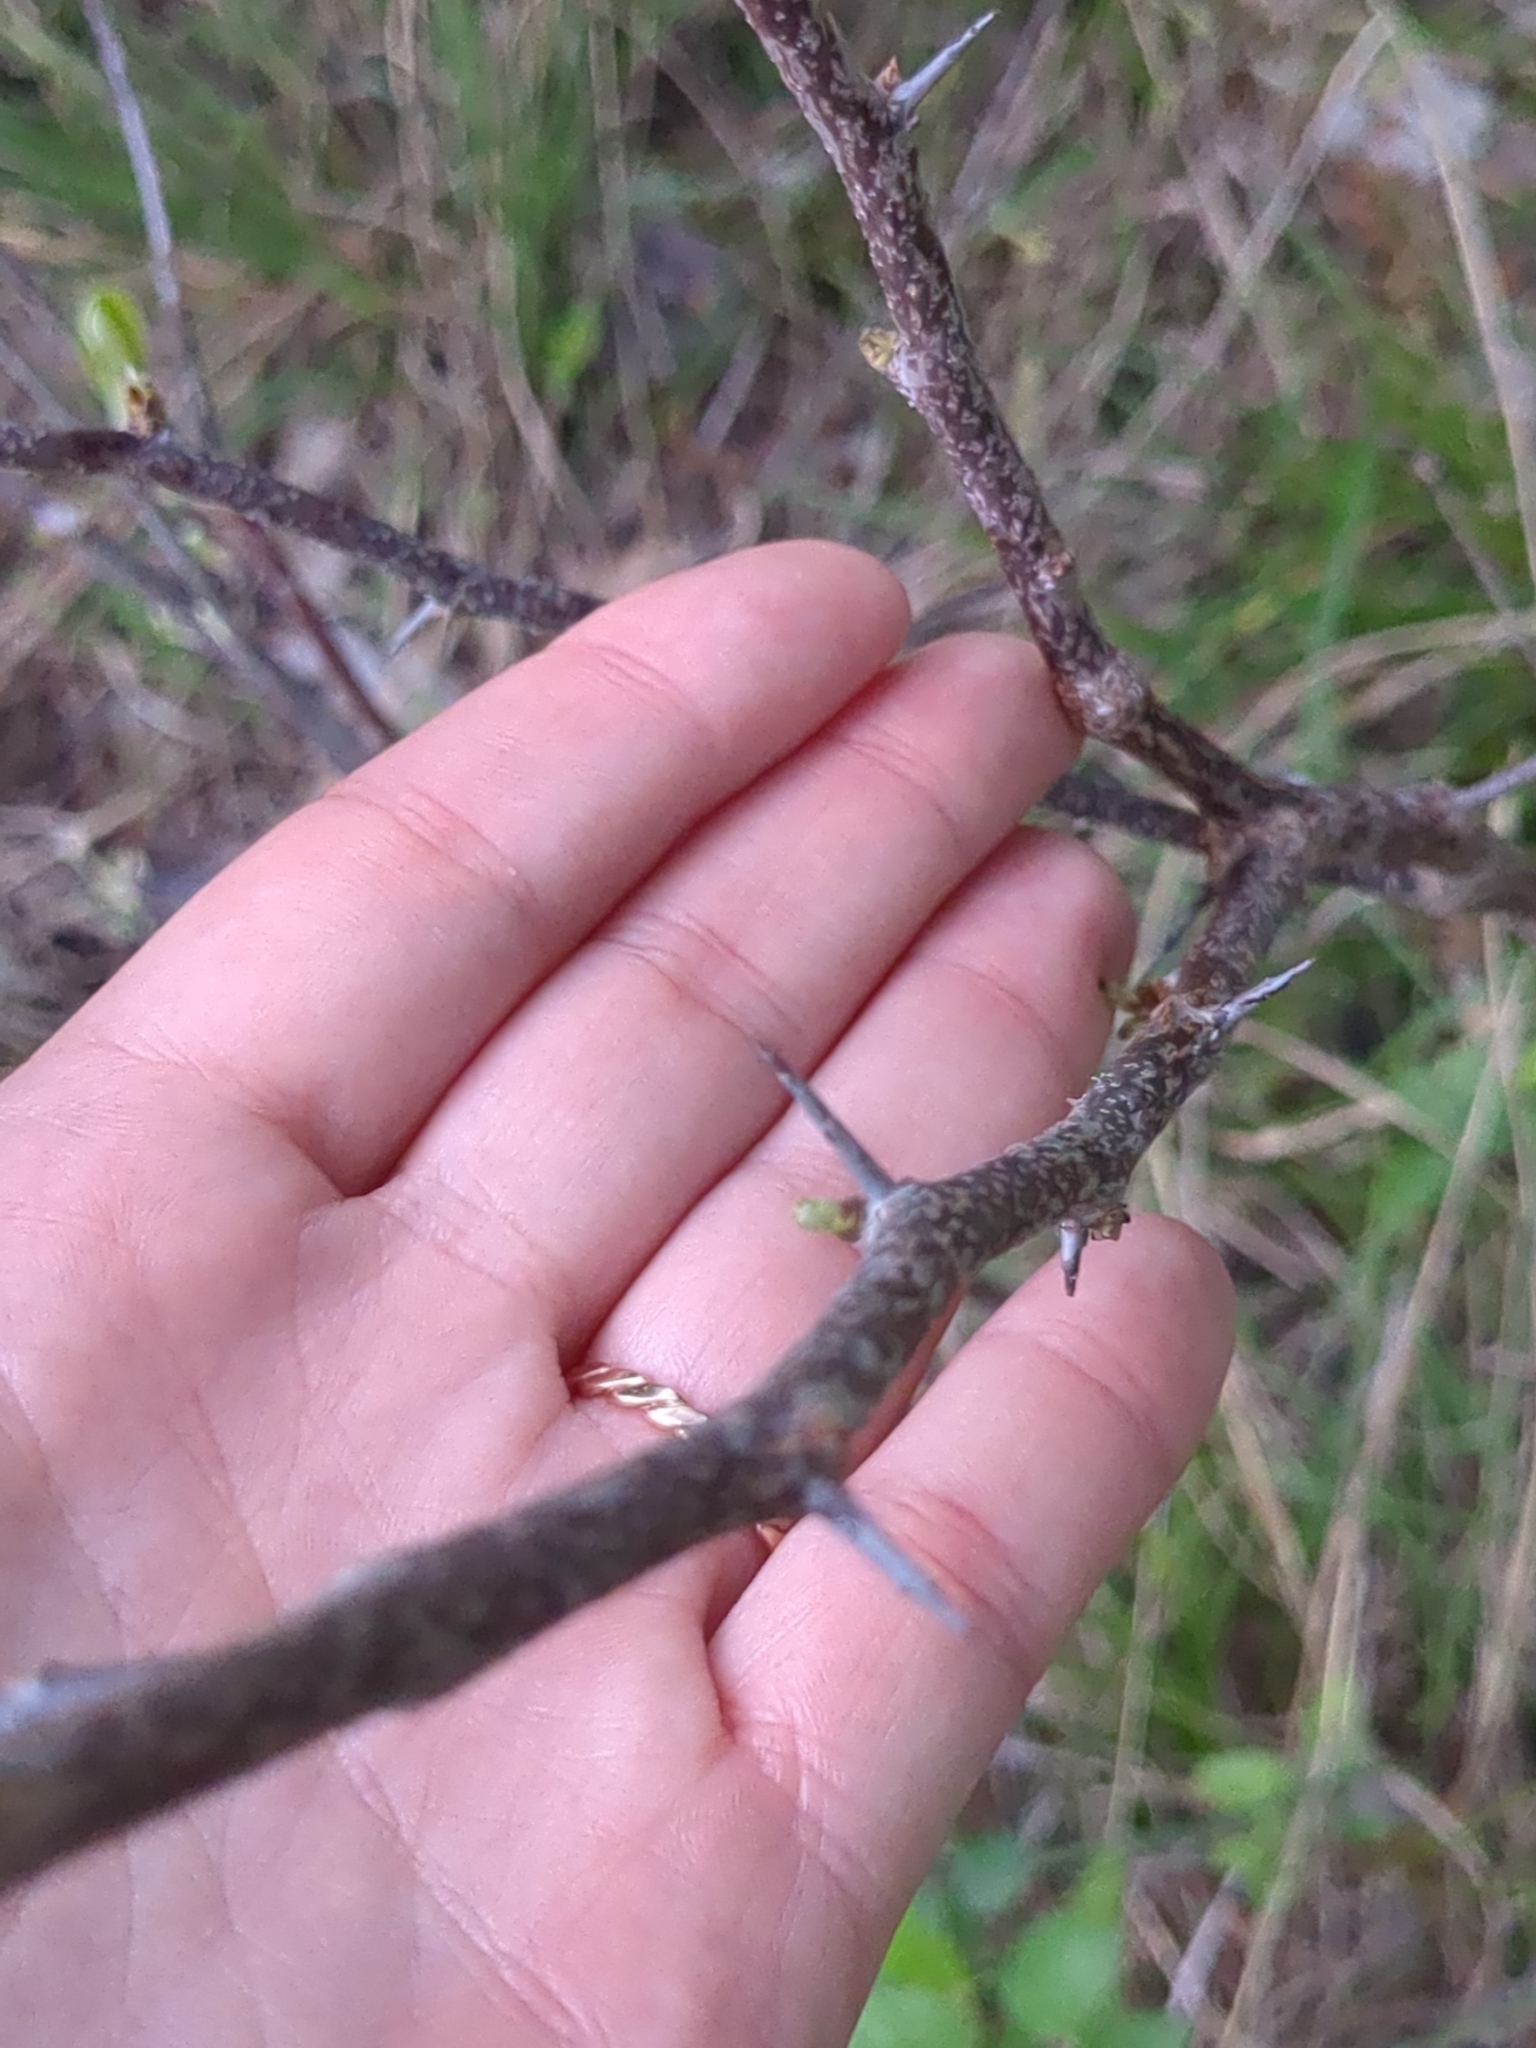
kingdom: Plantae
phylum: Tracheophyta
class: Magnoliopsida
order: Ericales
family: Sapotaceae
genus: Sideroxylon
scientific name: Sideroxylon lanuginosum
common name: Chittamwood
